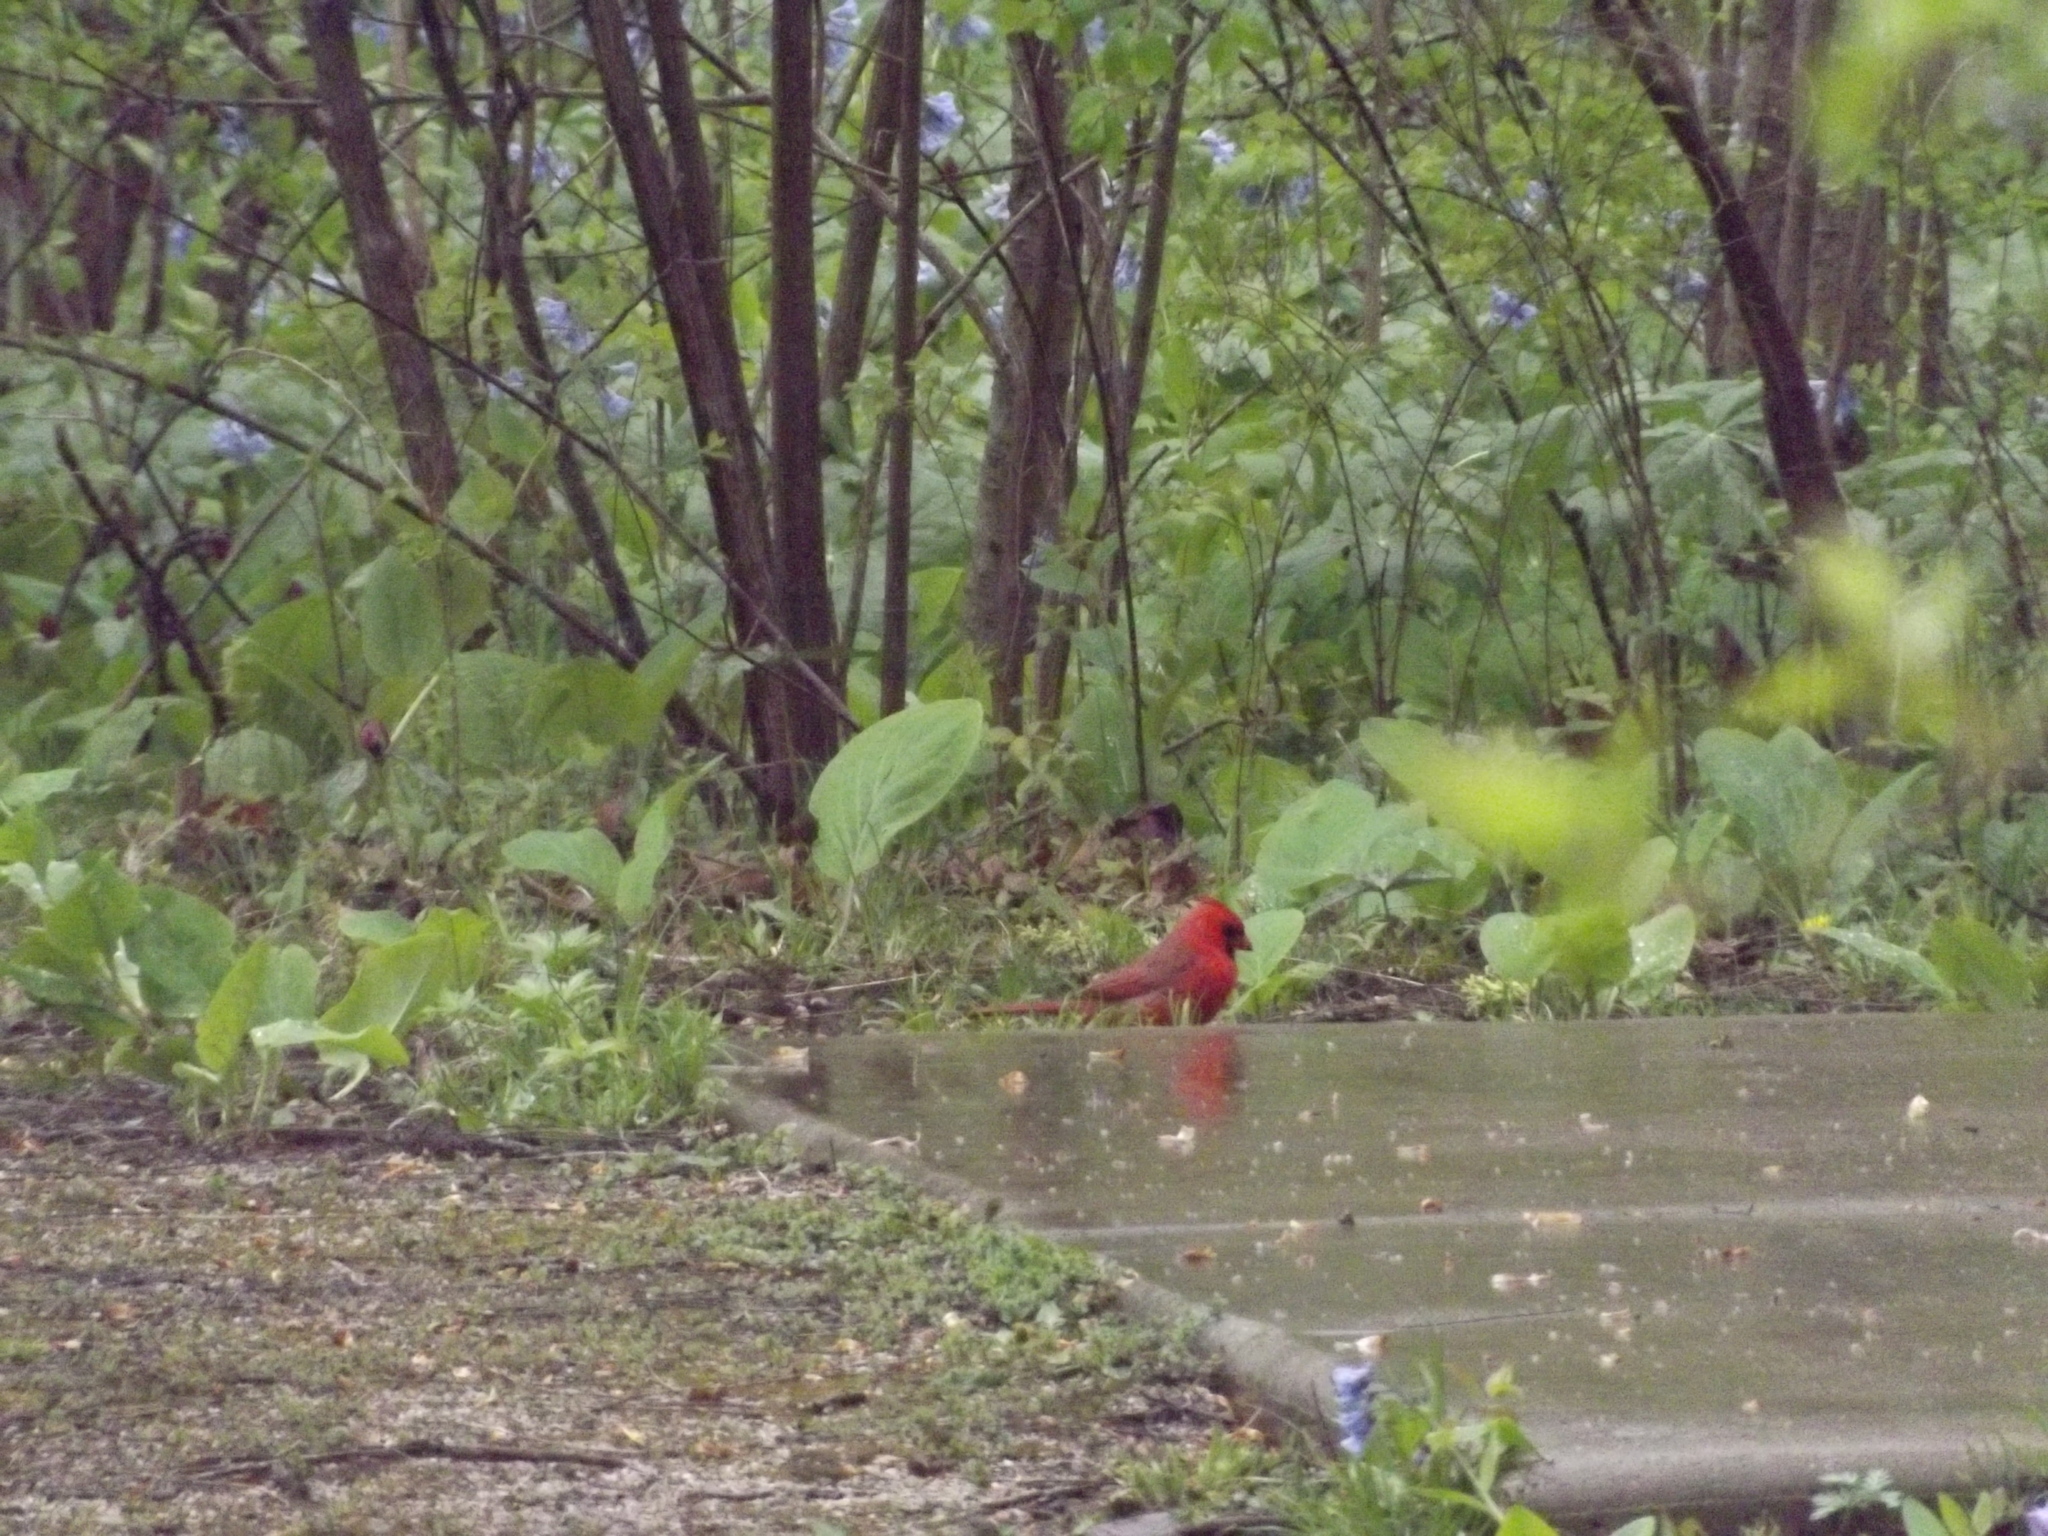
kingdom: Animalia
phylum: Chordata
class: Aves
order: Passeriformes
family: Cardinalidae
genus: Cardinalis
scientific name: Cardinalis cardinalis
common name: Northern cardinal
